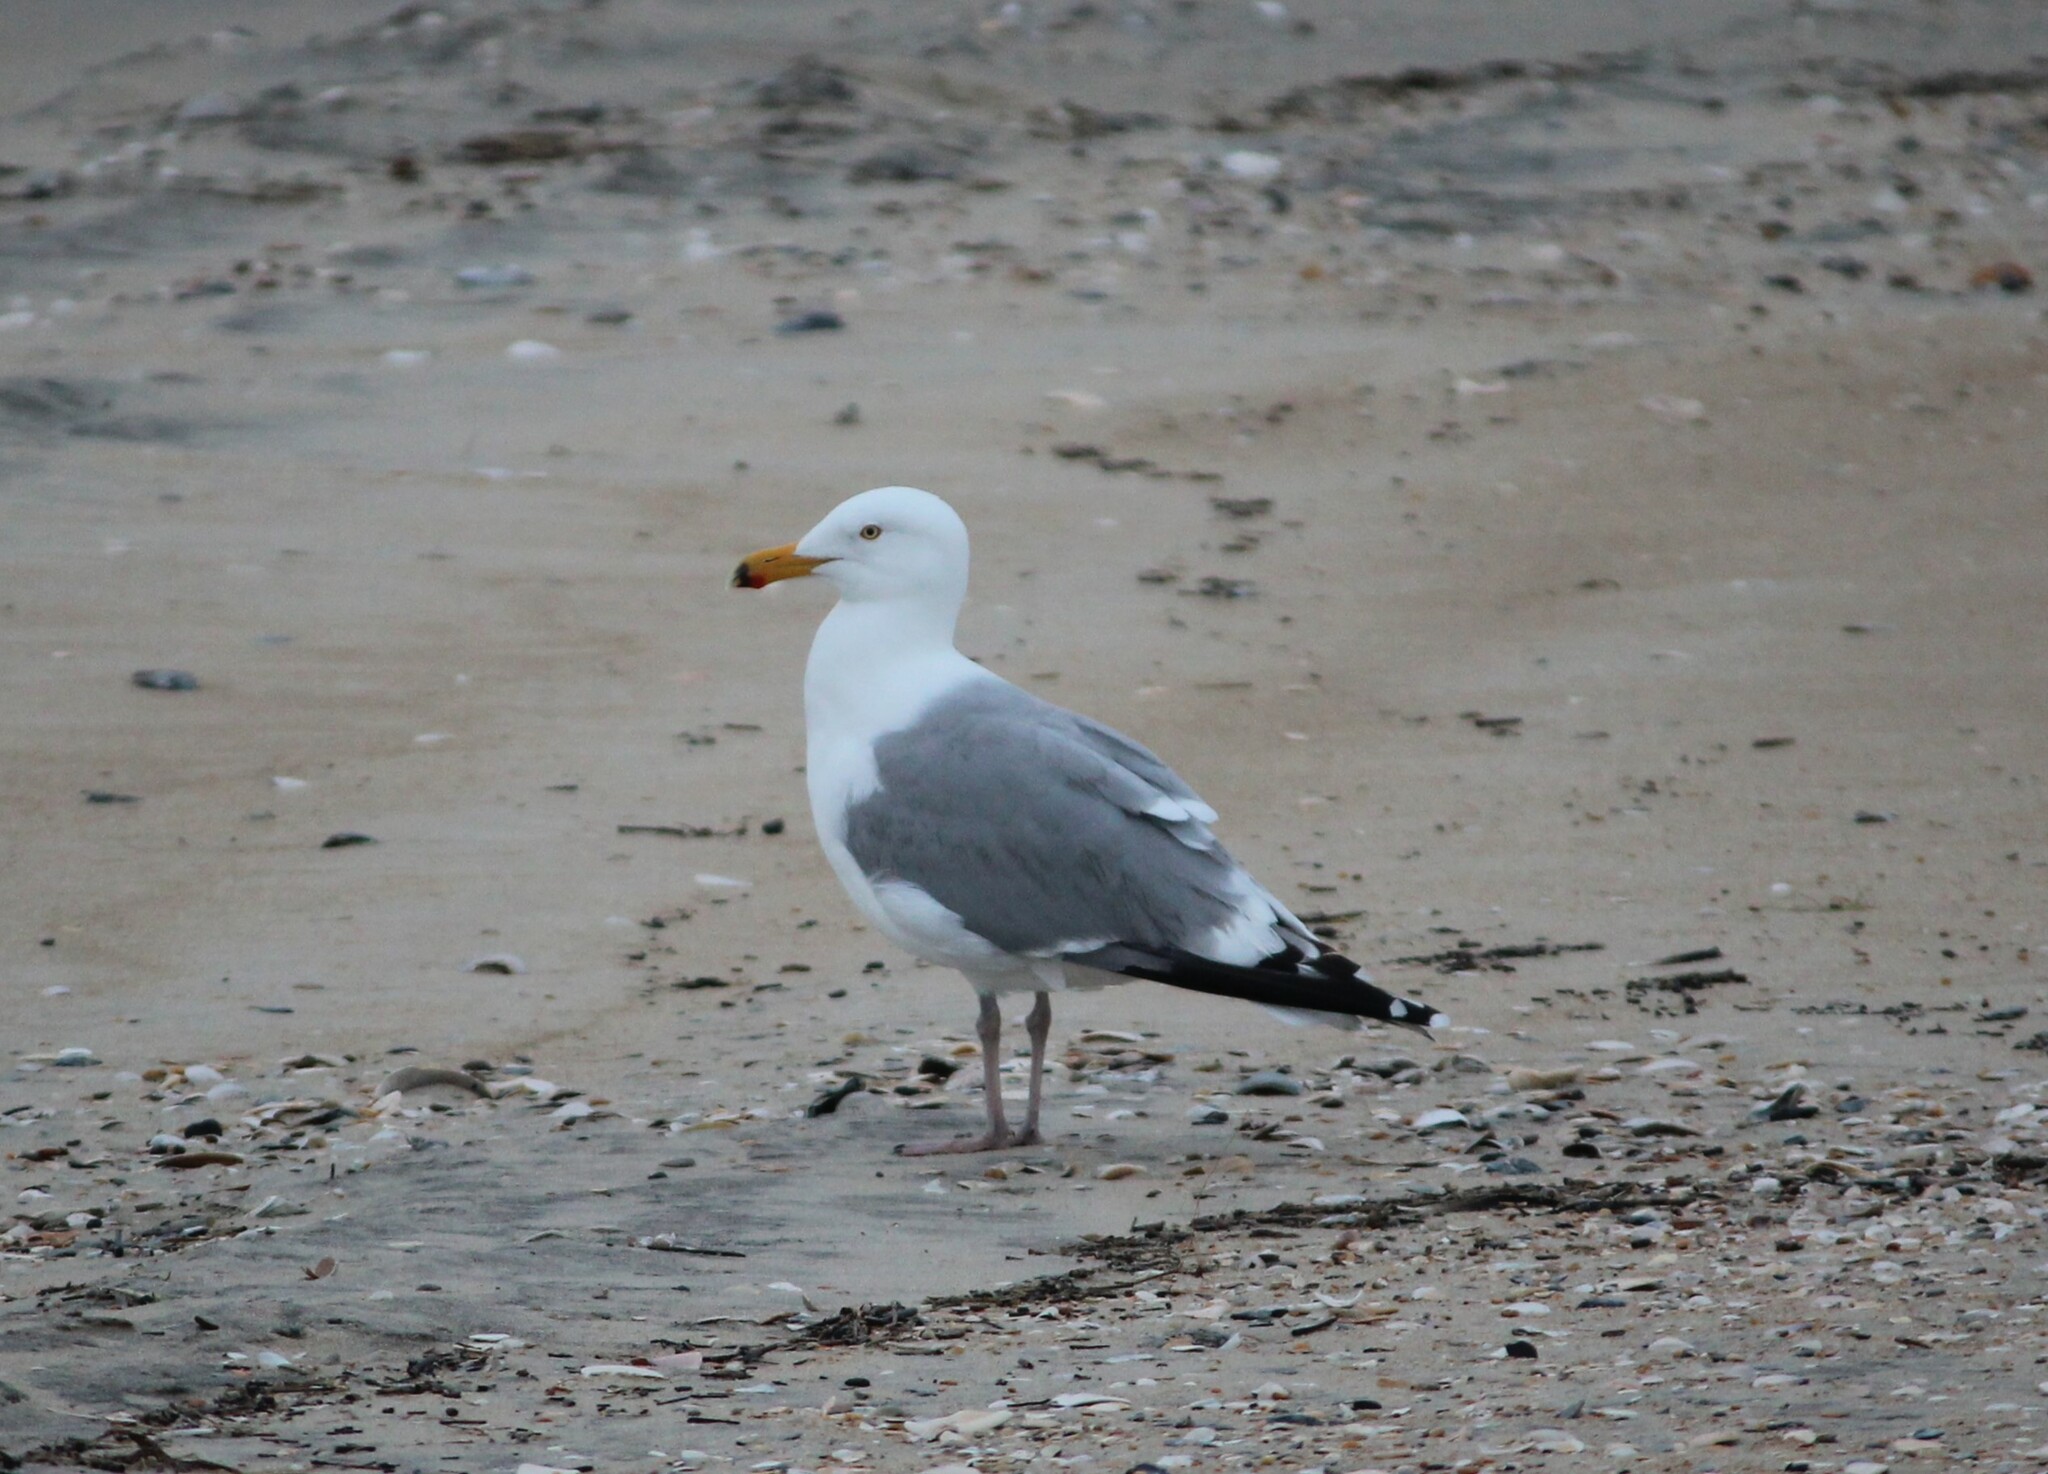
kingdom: Animalia
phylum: Chordata
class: Aves
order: Charadriiformes
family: Laridae
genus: Larus
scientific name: Larus argentatus
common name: Herring gull
